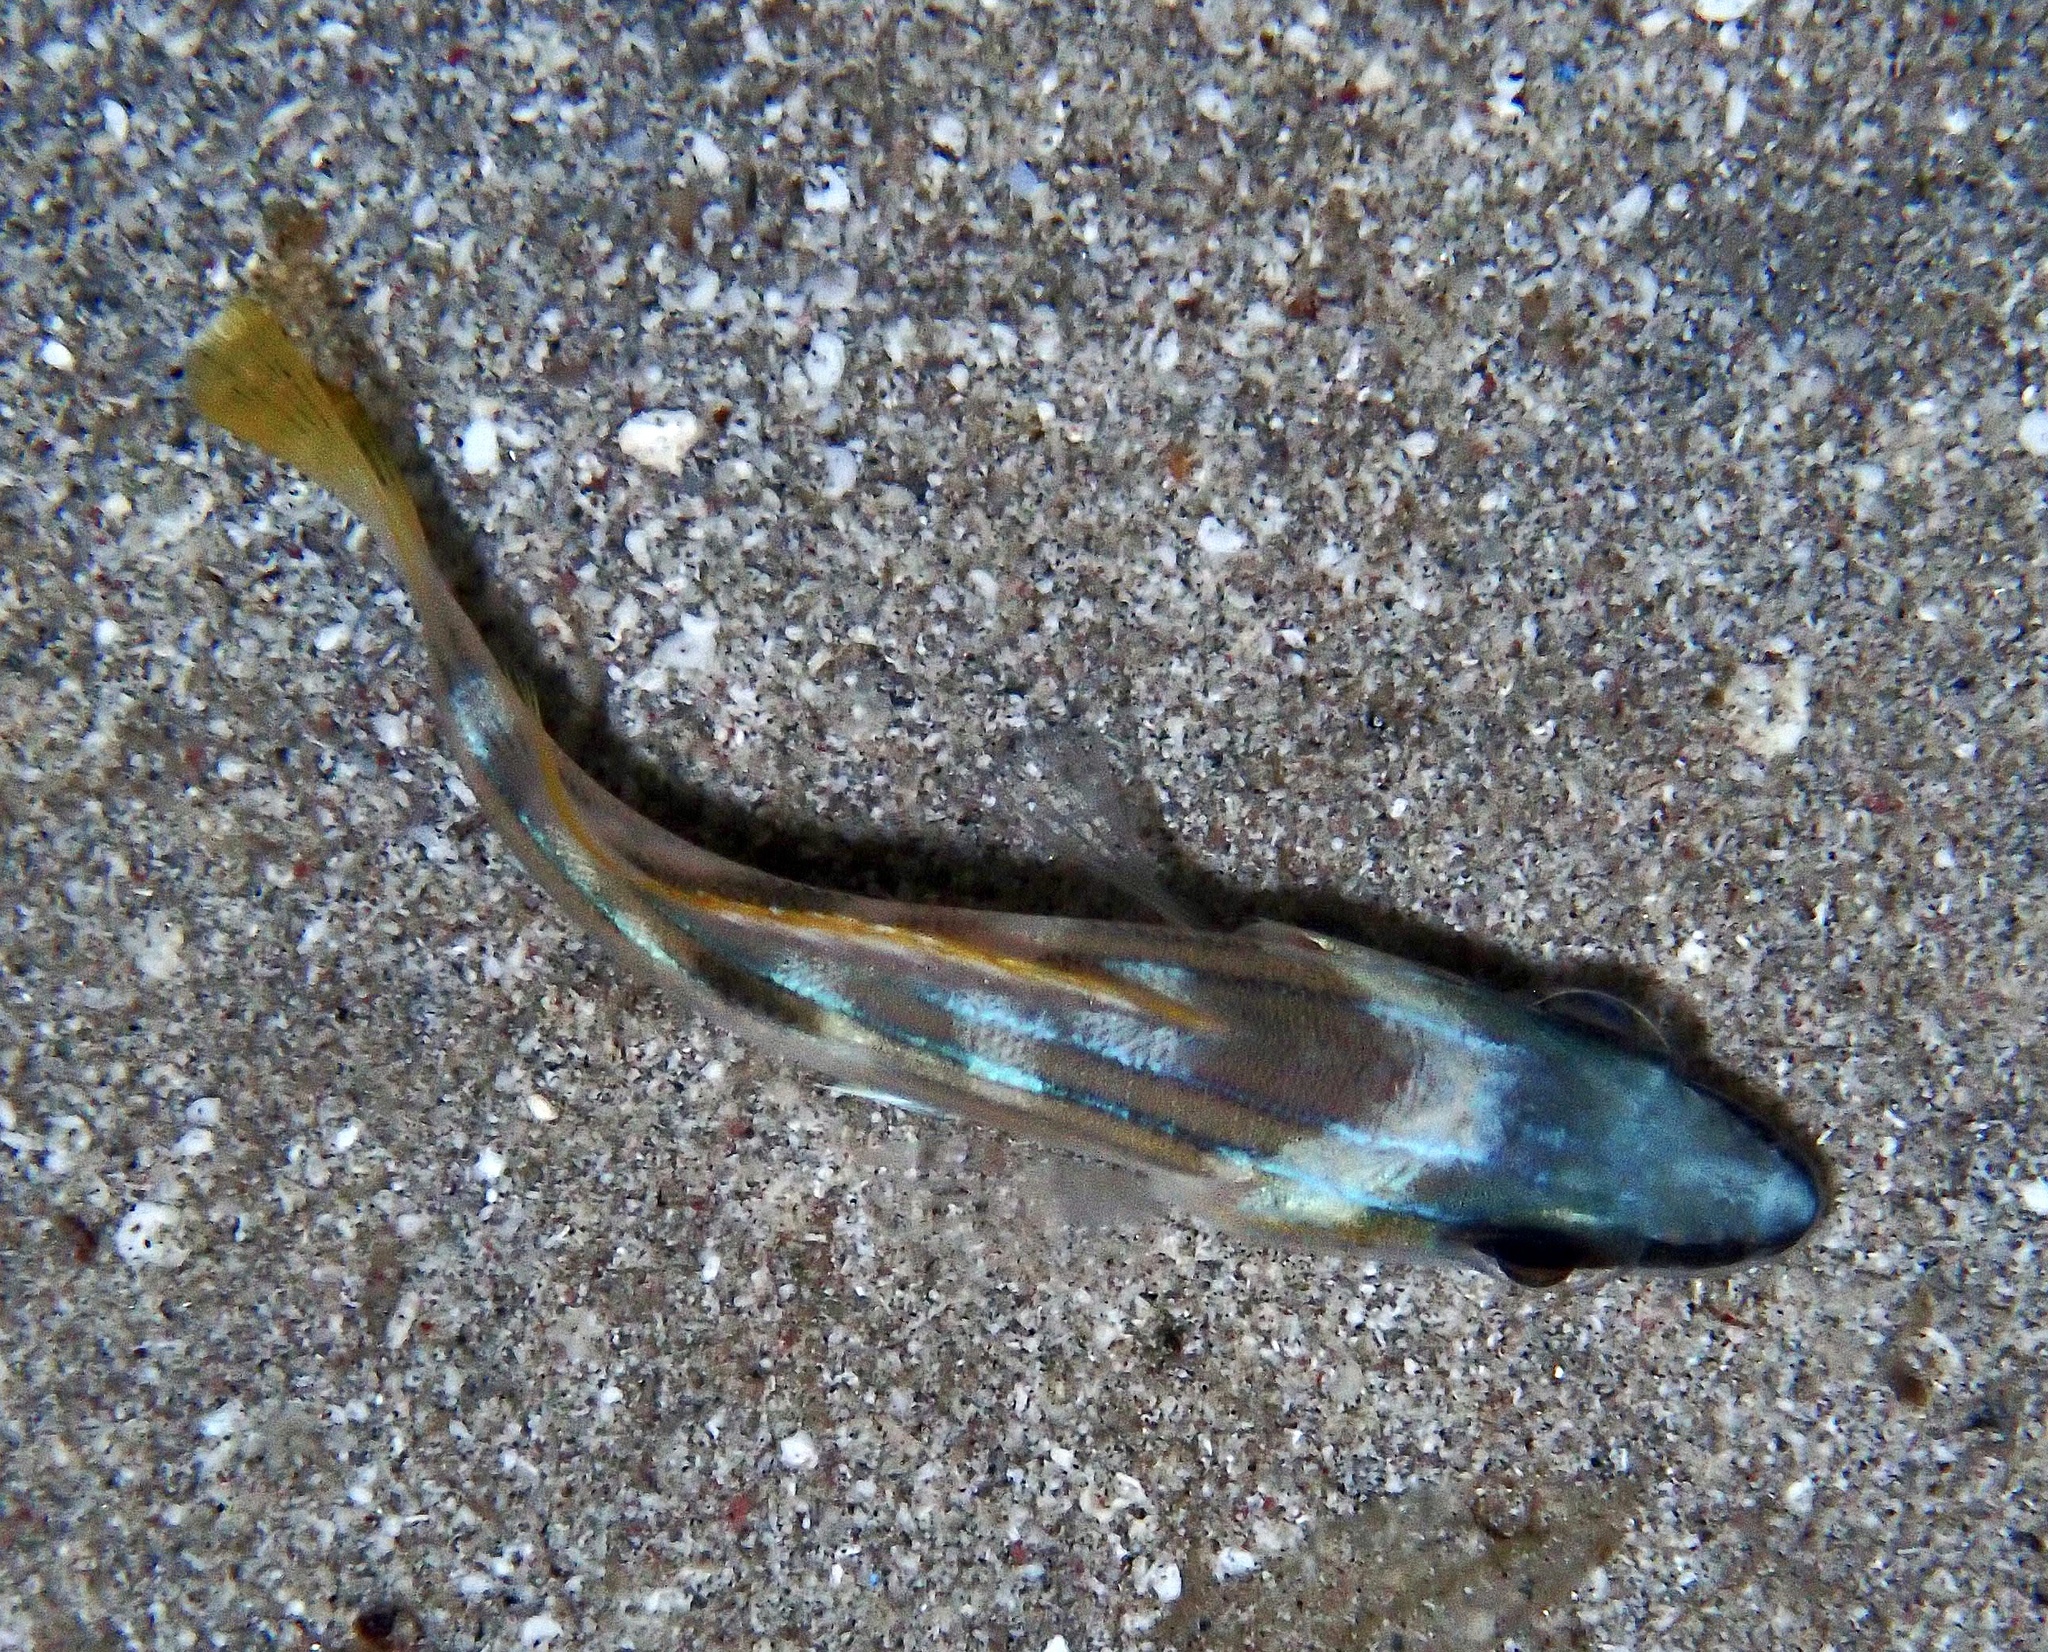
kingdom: Animalia
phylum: Chordata
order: Perciformes
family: Lutjanidae
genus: Lutjanus
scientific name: Lutjanus kasmira
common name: Common bluestripe snapper
